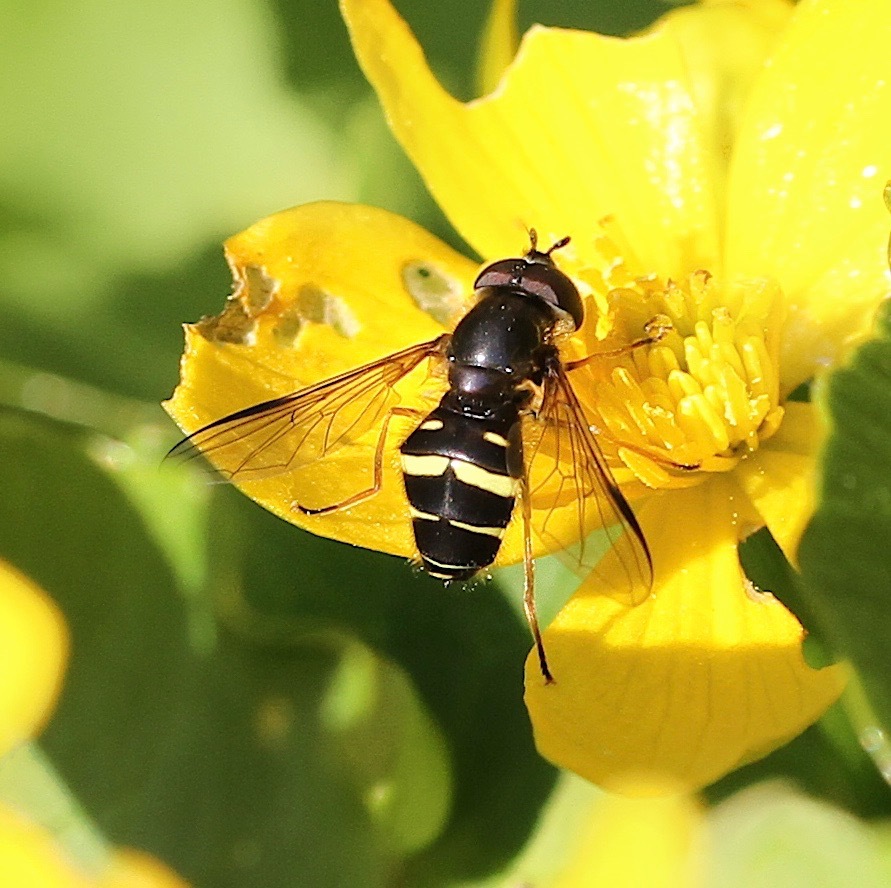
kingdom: Animalia
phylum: Arthropoda
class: Insecta
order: Diptera
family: Syrphidae
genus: Dasysyrphus
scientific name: Dasysyrphus tricinctus
